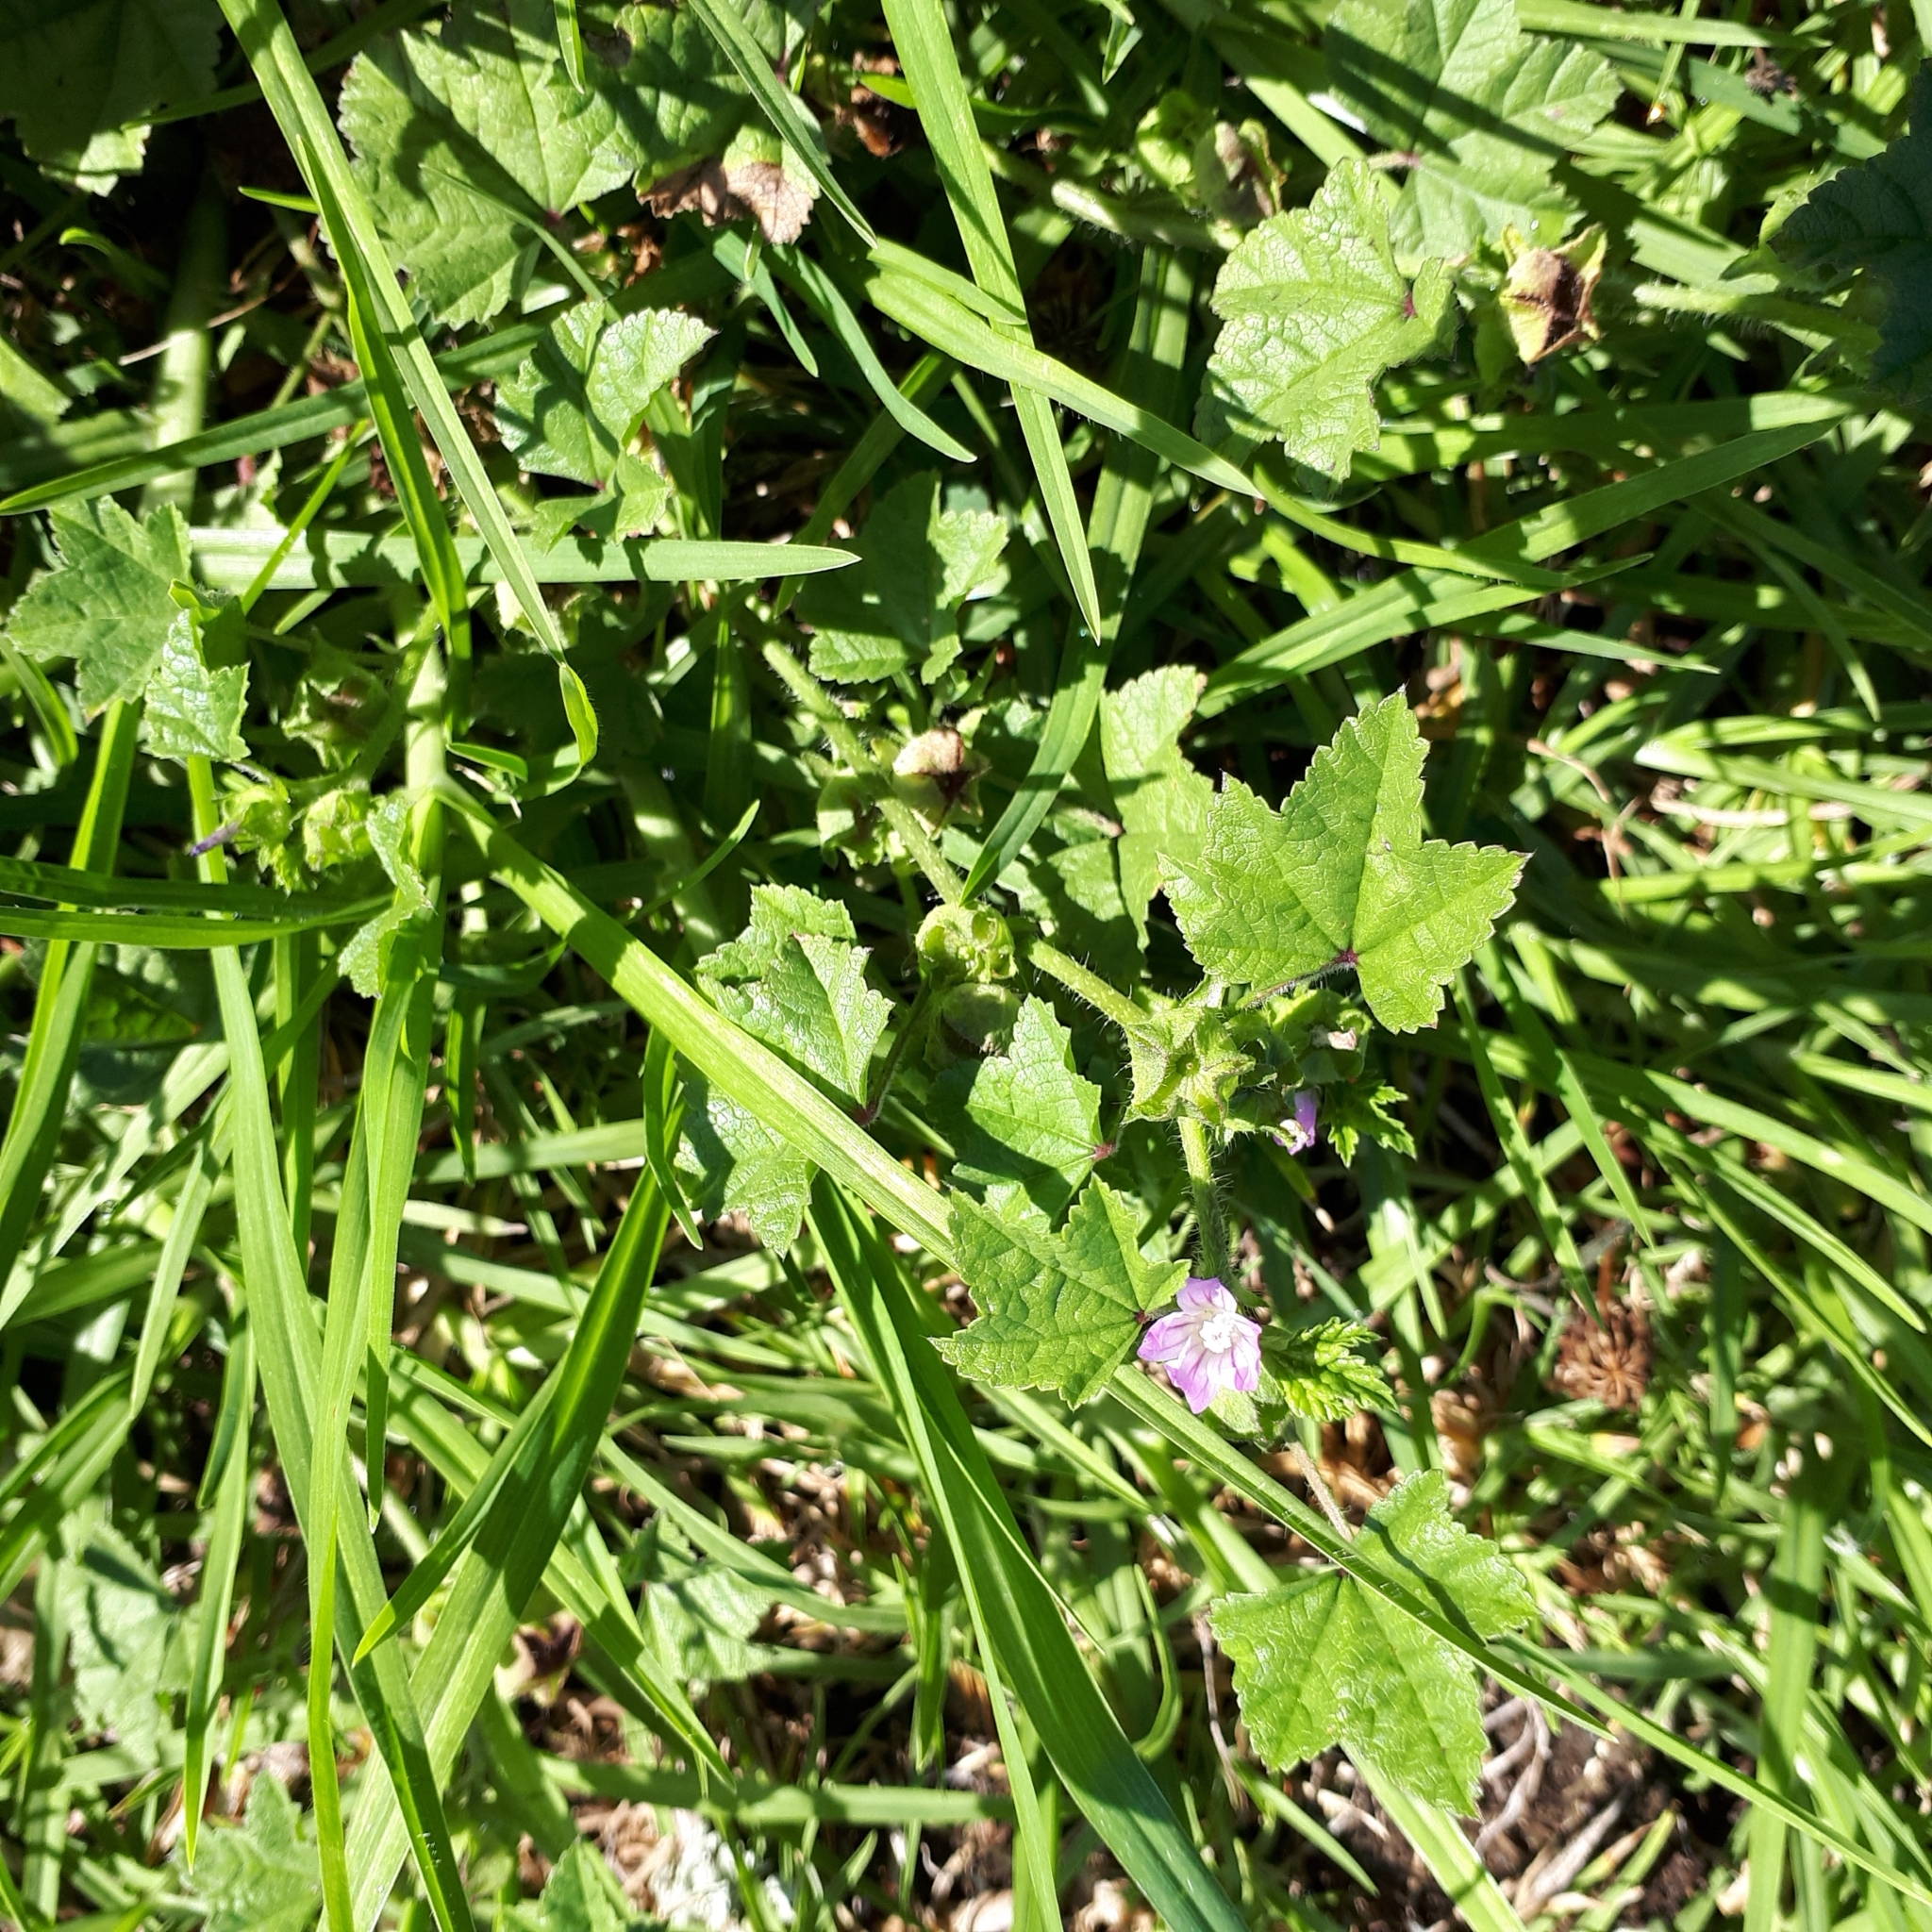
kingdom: Plantae
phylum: Tracheophyta
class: Magnoliopsida
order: Malvales
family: Malvaceae
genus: Malva
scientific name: Malva nicaeensis
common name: French mallow
